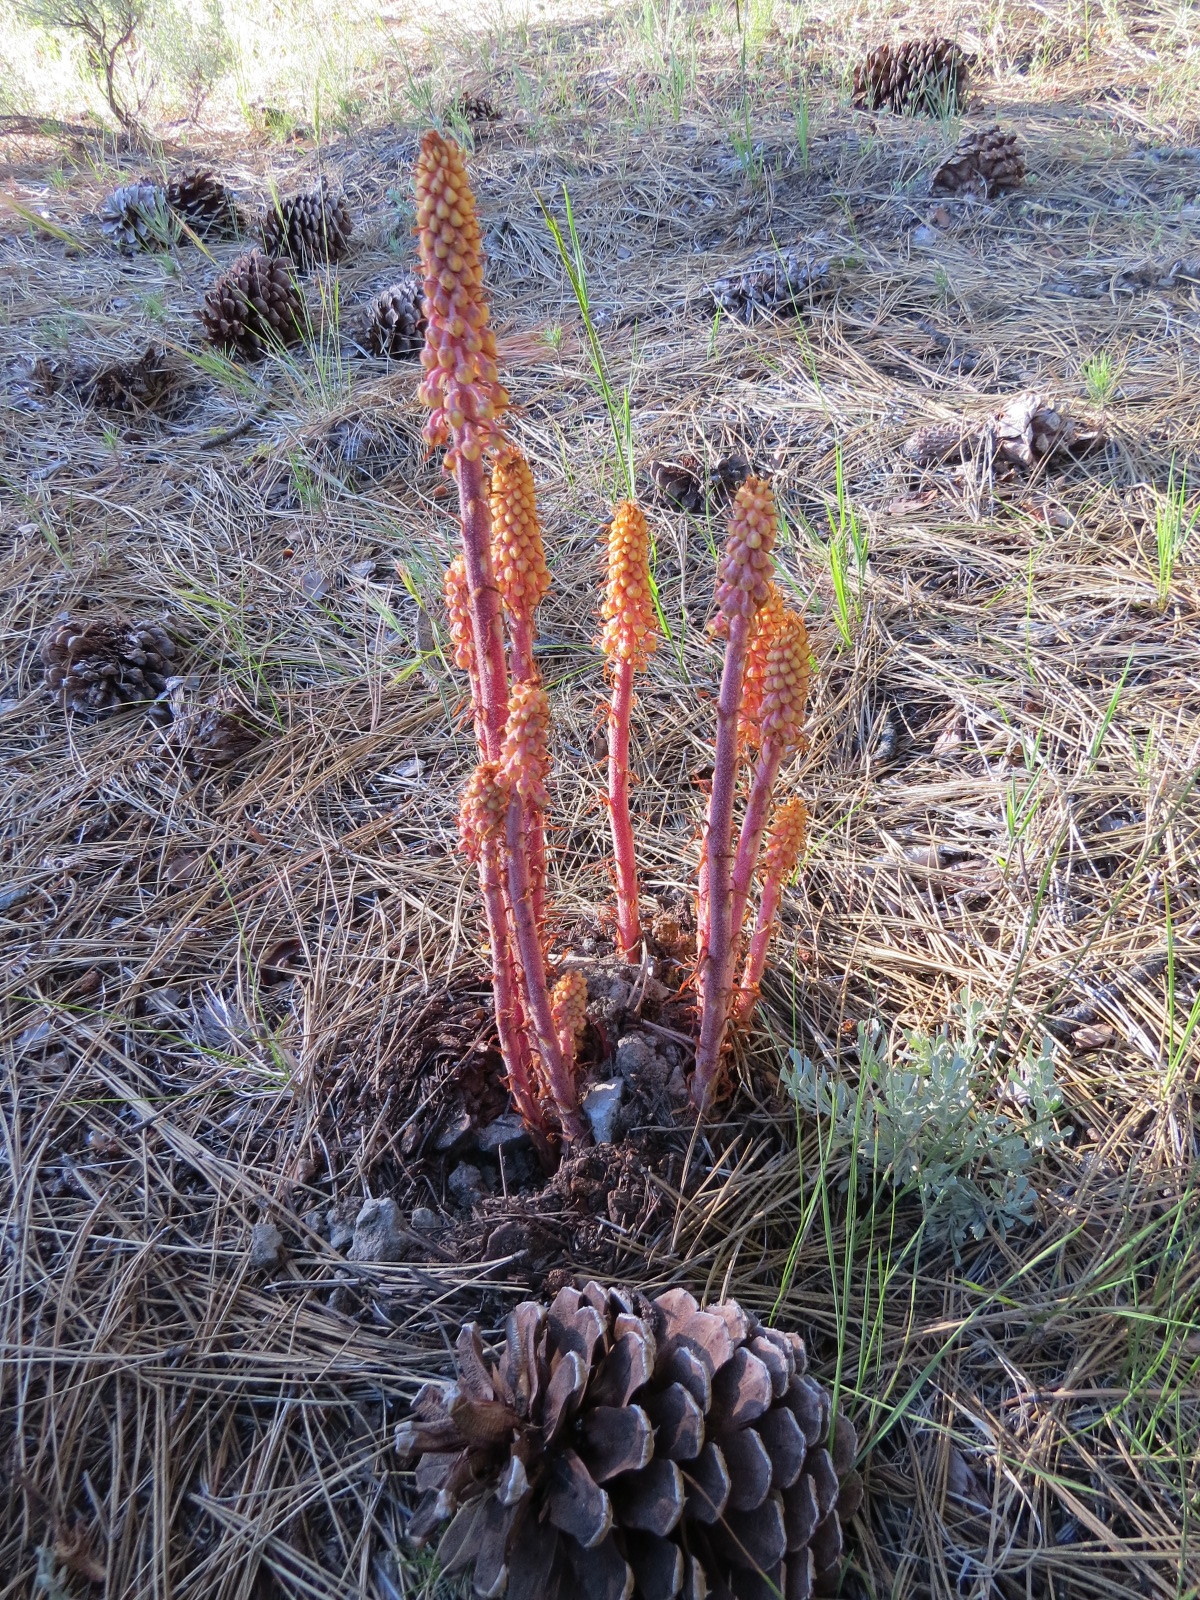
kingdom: Plantae
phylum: Tracheophyta
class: Magnoliopsida
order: Ericales
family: Ericaceae
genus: Pterospora
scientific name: Pterospora andromedea
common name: Giant bird's-nest
